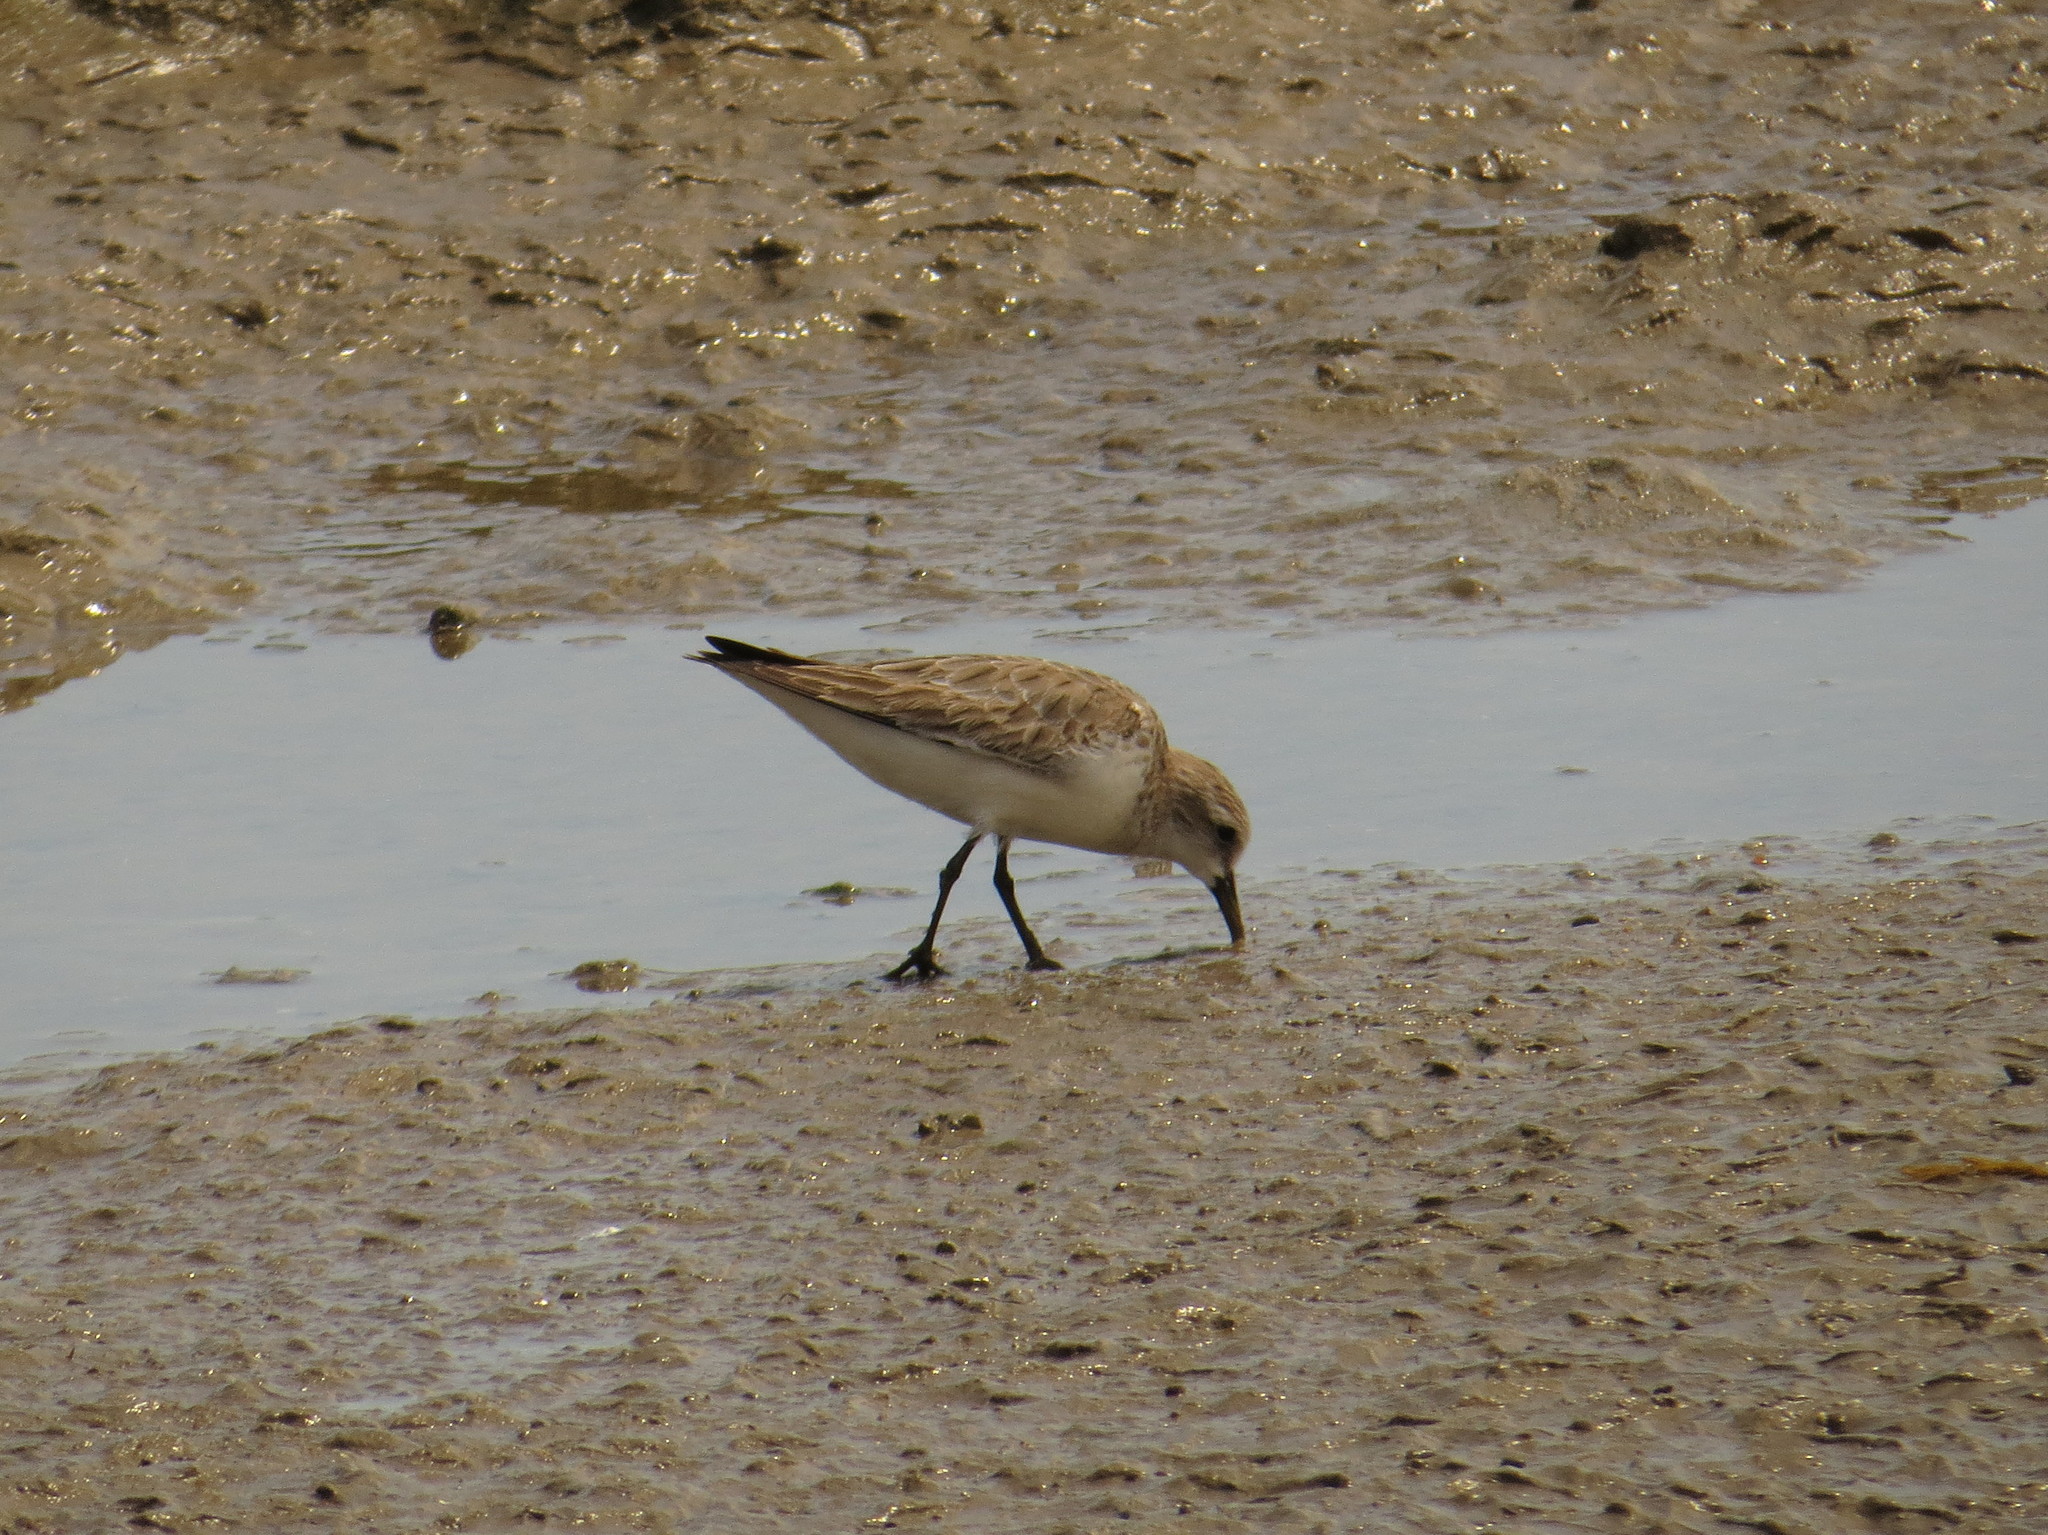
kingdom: Animalia
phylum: Chordata
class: Aves
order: Charadriiformes
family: Scolopacidae
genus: Calidris
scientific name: Calidris ruficollis
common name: Red-necked stint
